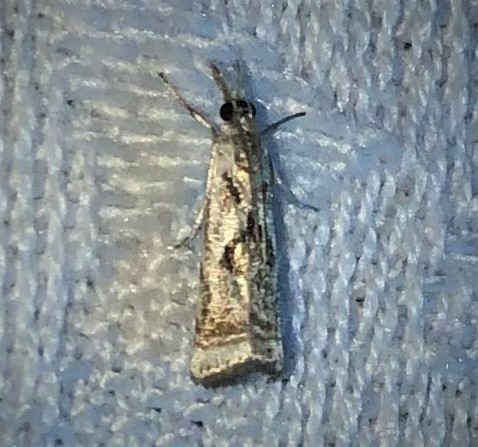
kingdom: Animalia
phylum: Arthropoda
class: Insecta
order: Lepidoptera
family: Crambidae
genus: Microcrambus
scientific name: Microcrambus elegans
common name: Elegant grass-veneer
